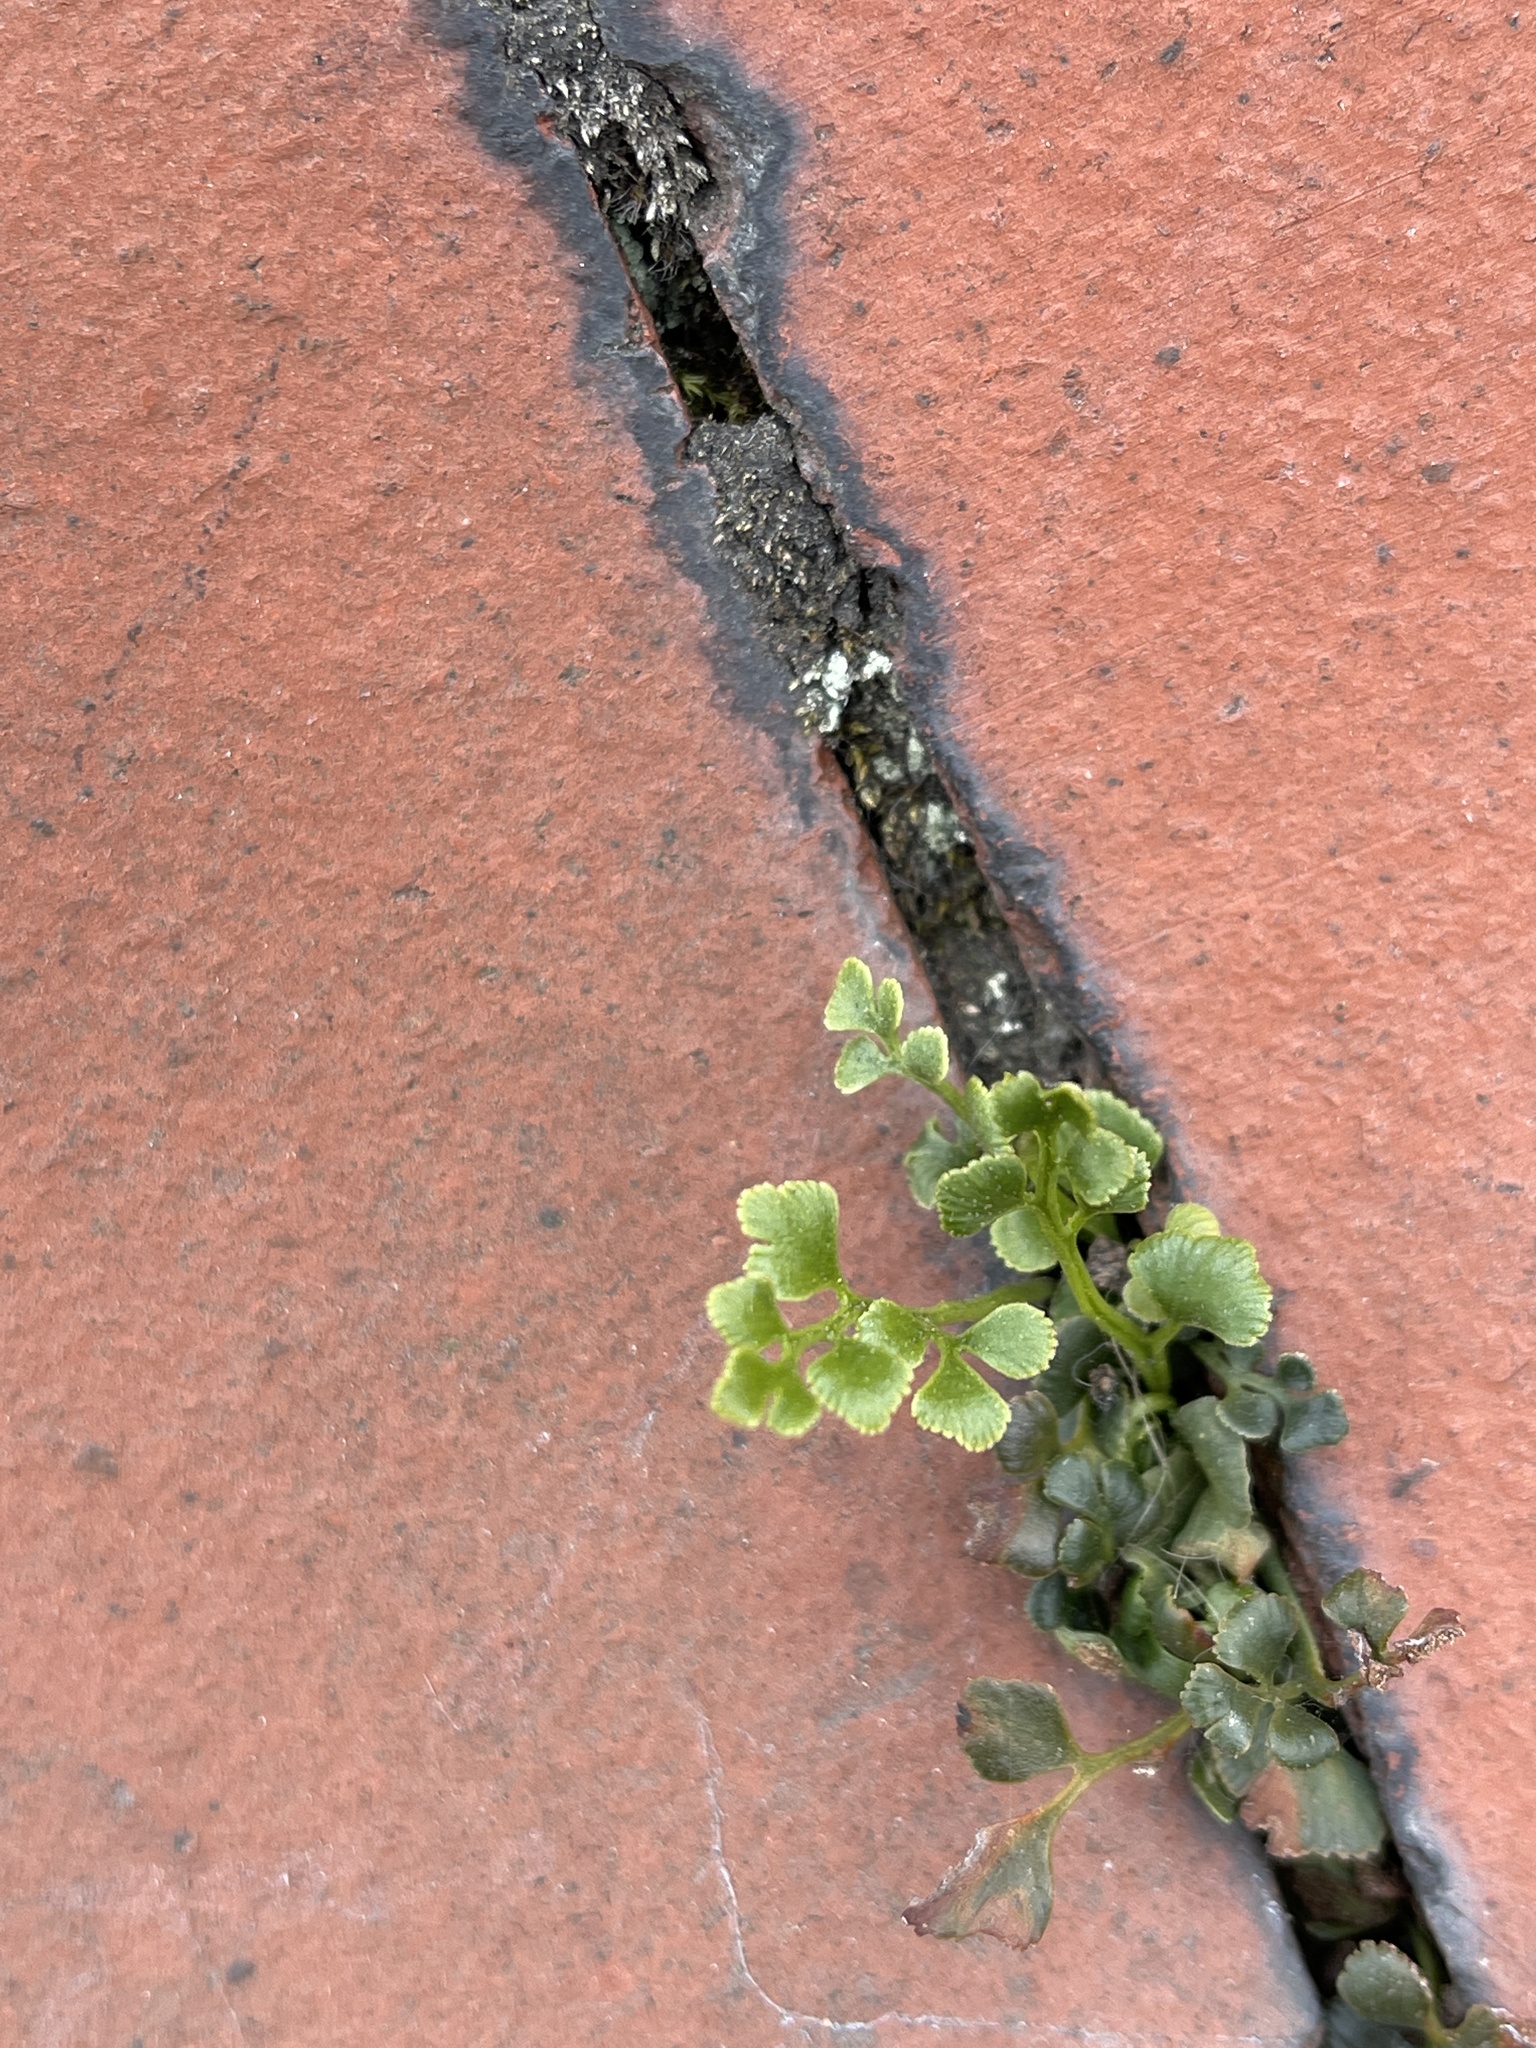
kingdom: Plantae
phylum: Tracheophyta
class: Polypodiopsida
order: Polypodiales
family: Aspleniaceae
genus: Asplenium
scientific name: Asplenium ruta-muraria
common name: Wall-rue
